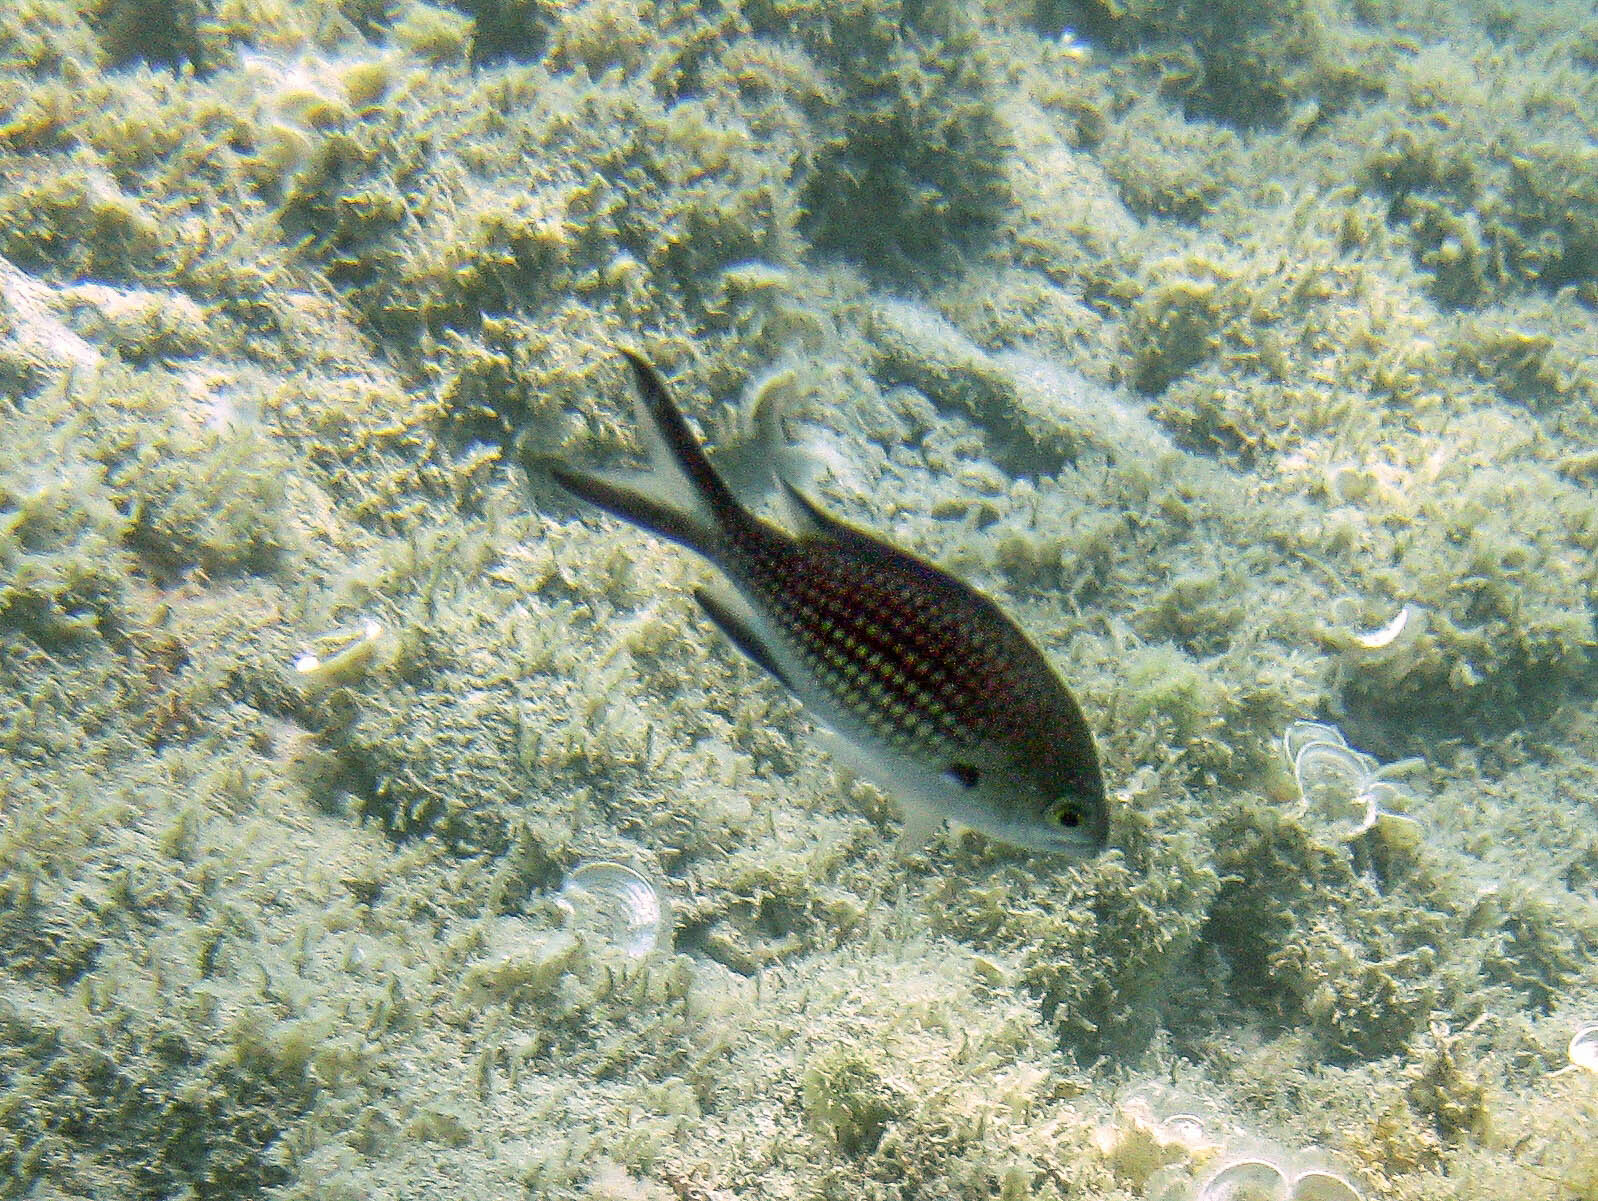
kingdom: Animalia
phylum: Chordata
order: Perciformes
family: Pomacentridae
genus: Chromis
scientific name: Chromis chromis
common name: Damselfish
